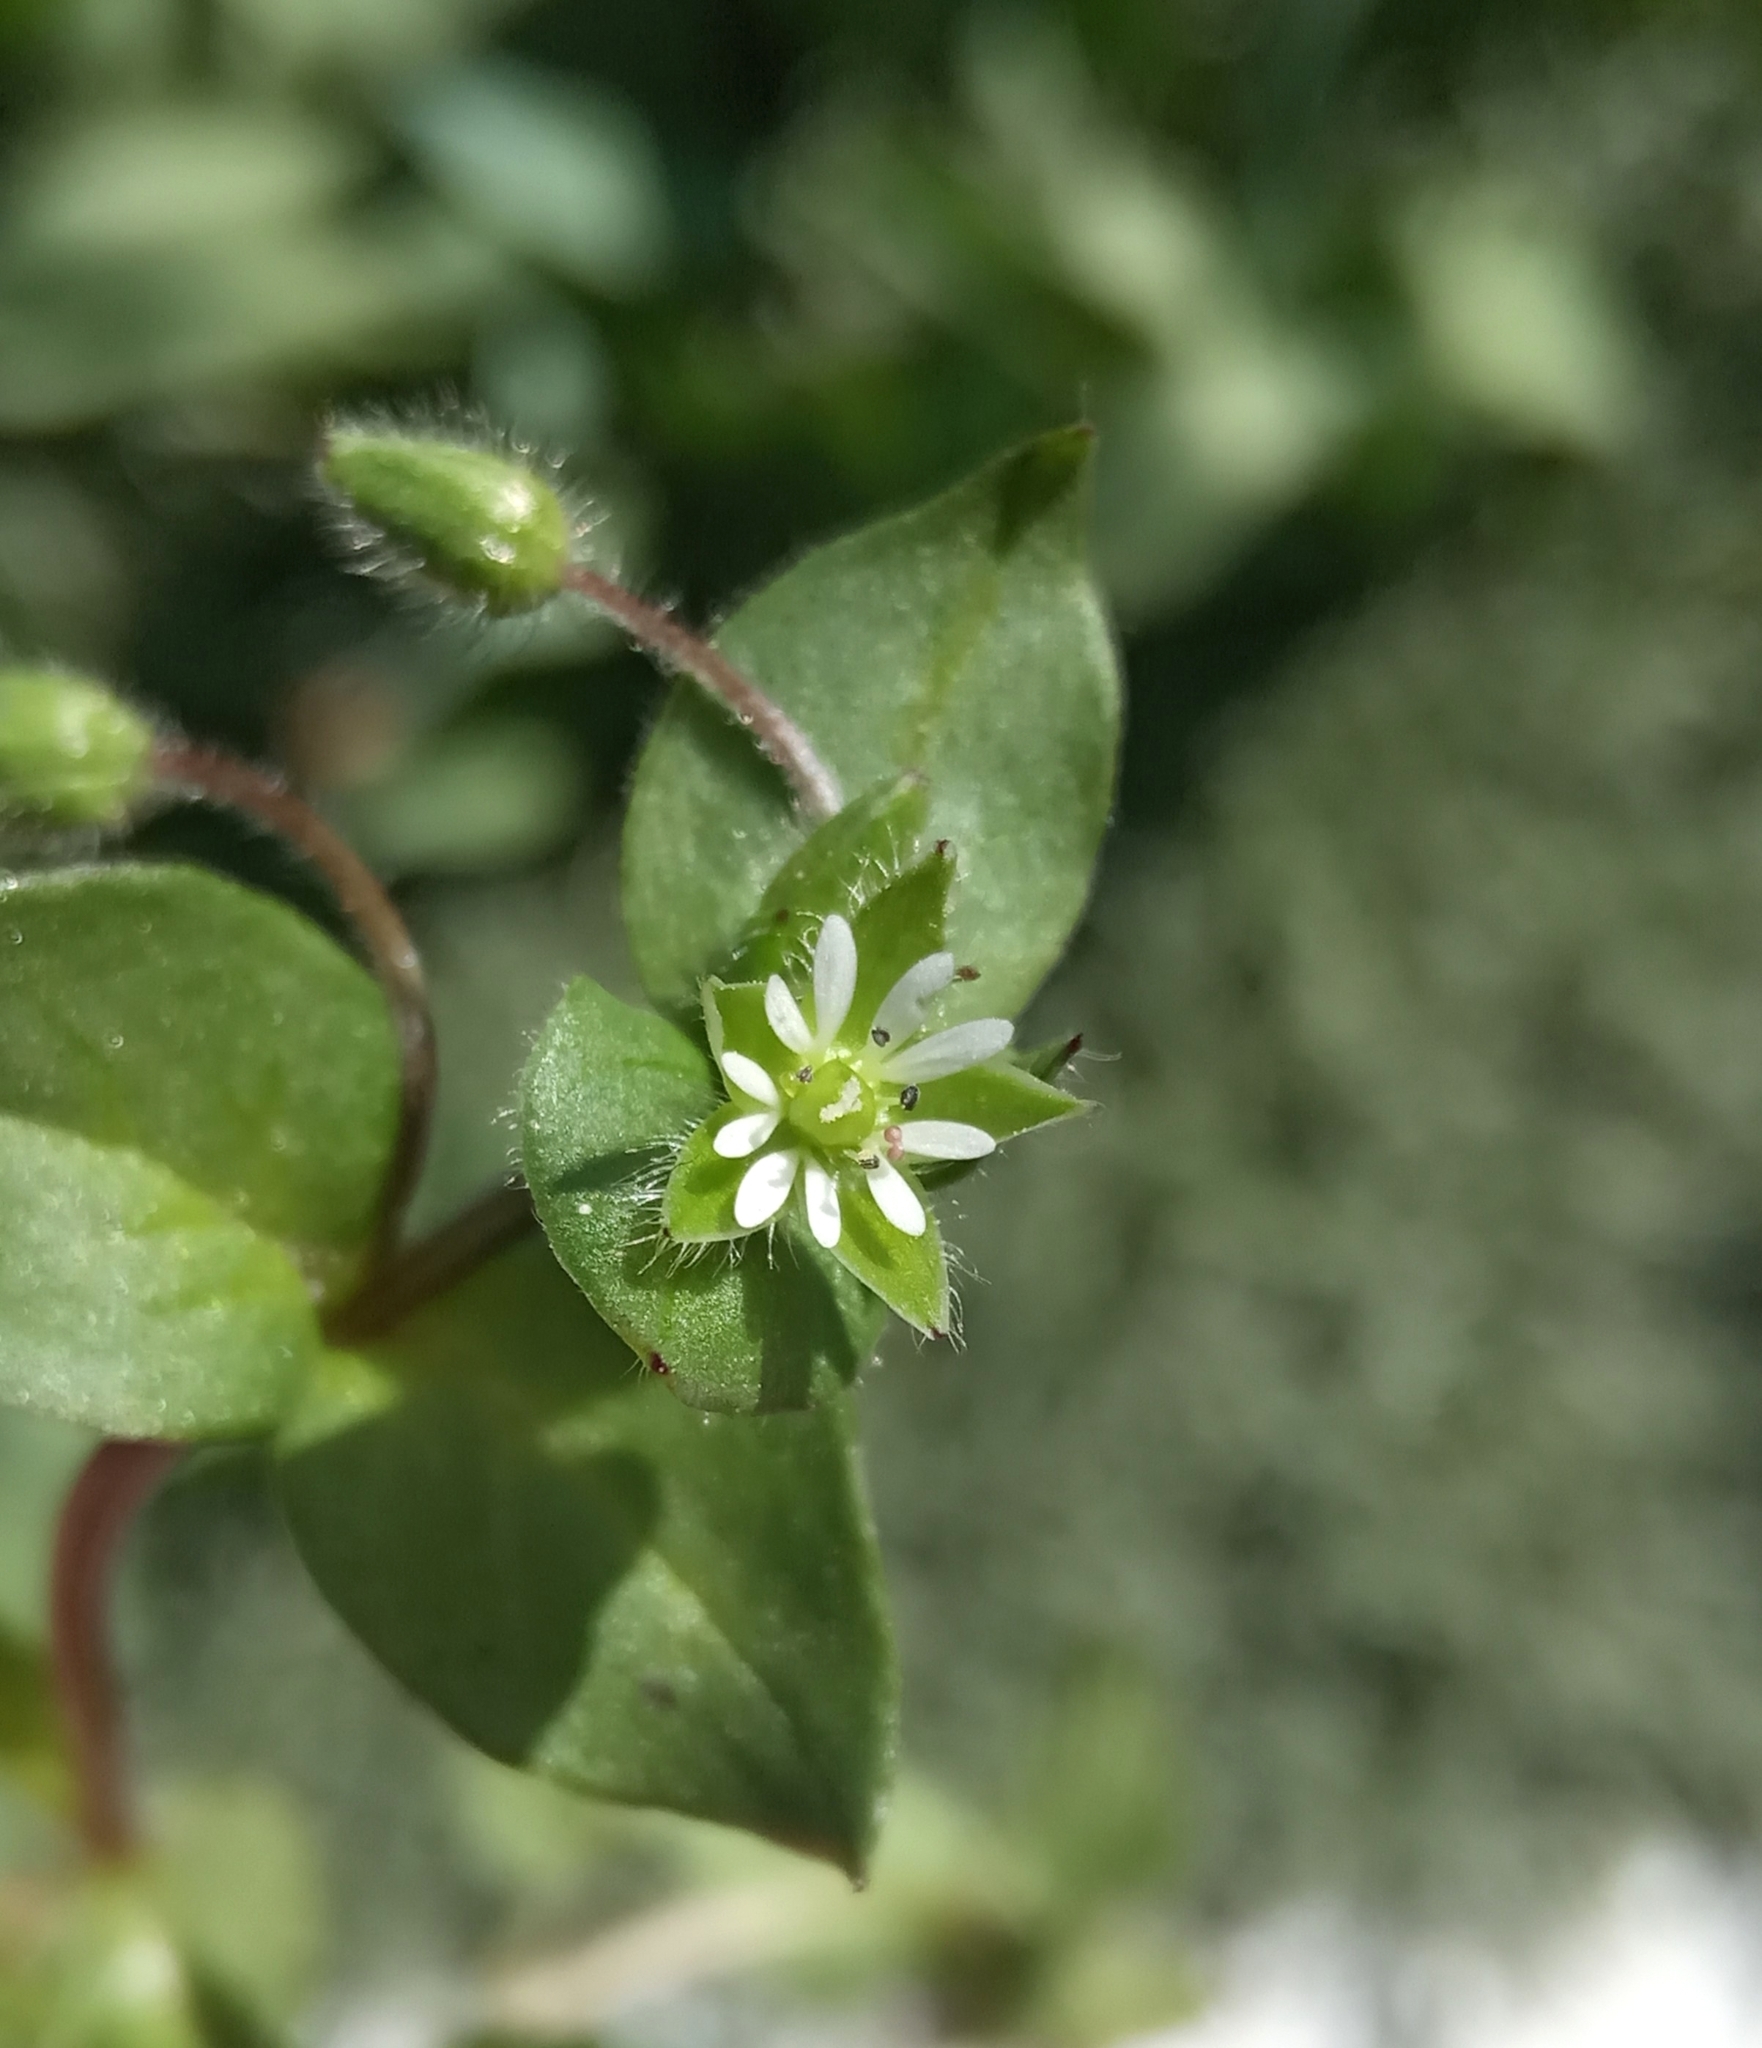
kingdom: Plantae
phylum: Tracheophyta
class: Magnoliopsida
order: Caryophyllales
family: Caryophyllaceae
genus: Stellaria
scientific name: Stellaria media
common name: Common chickweed
